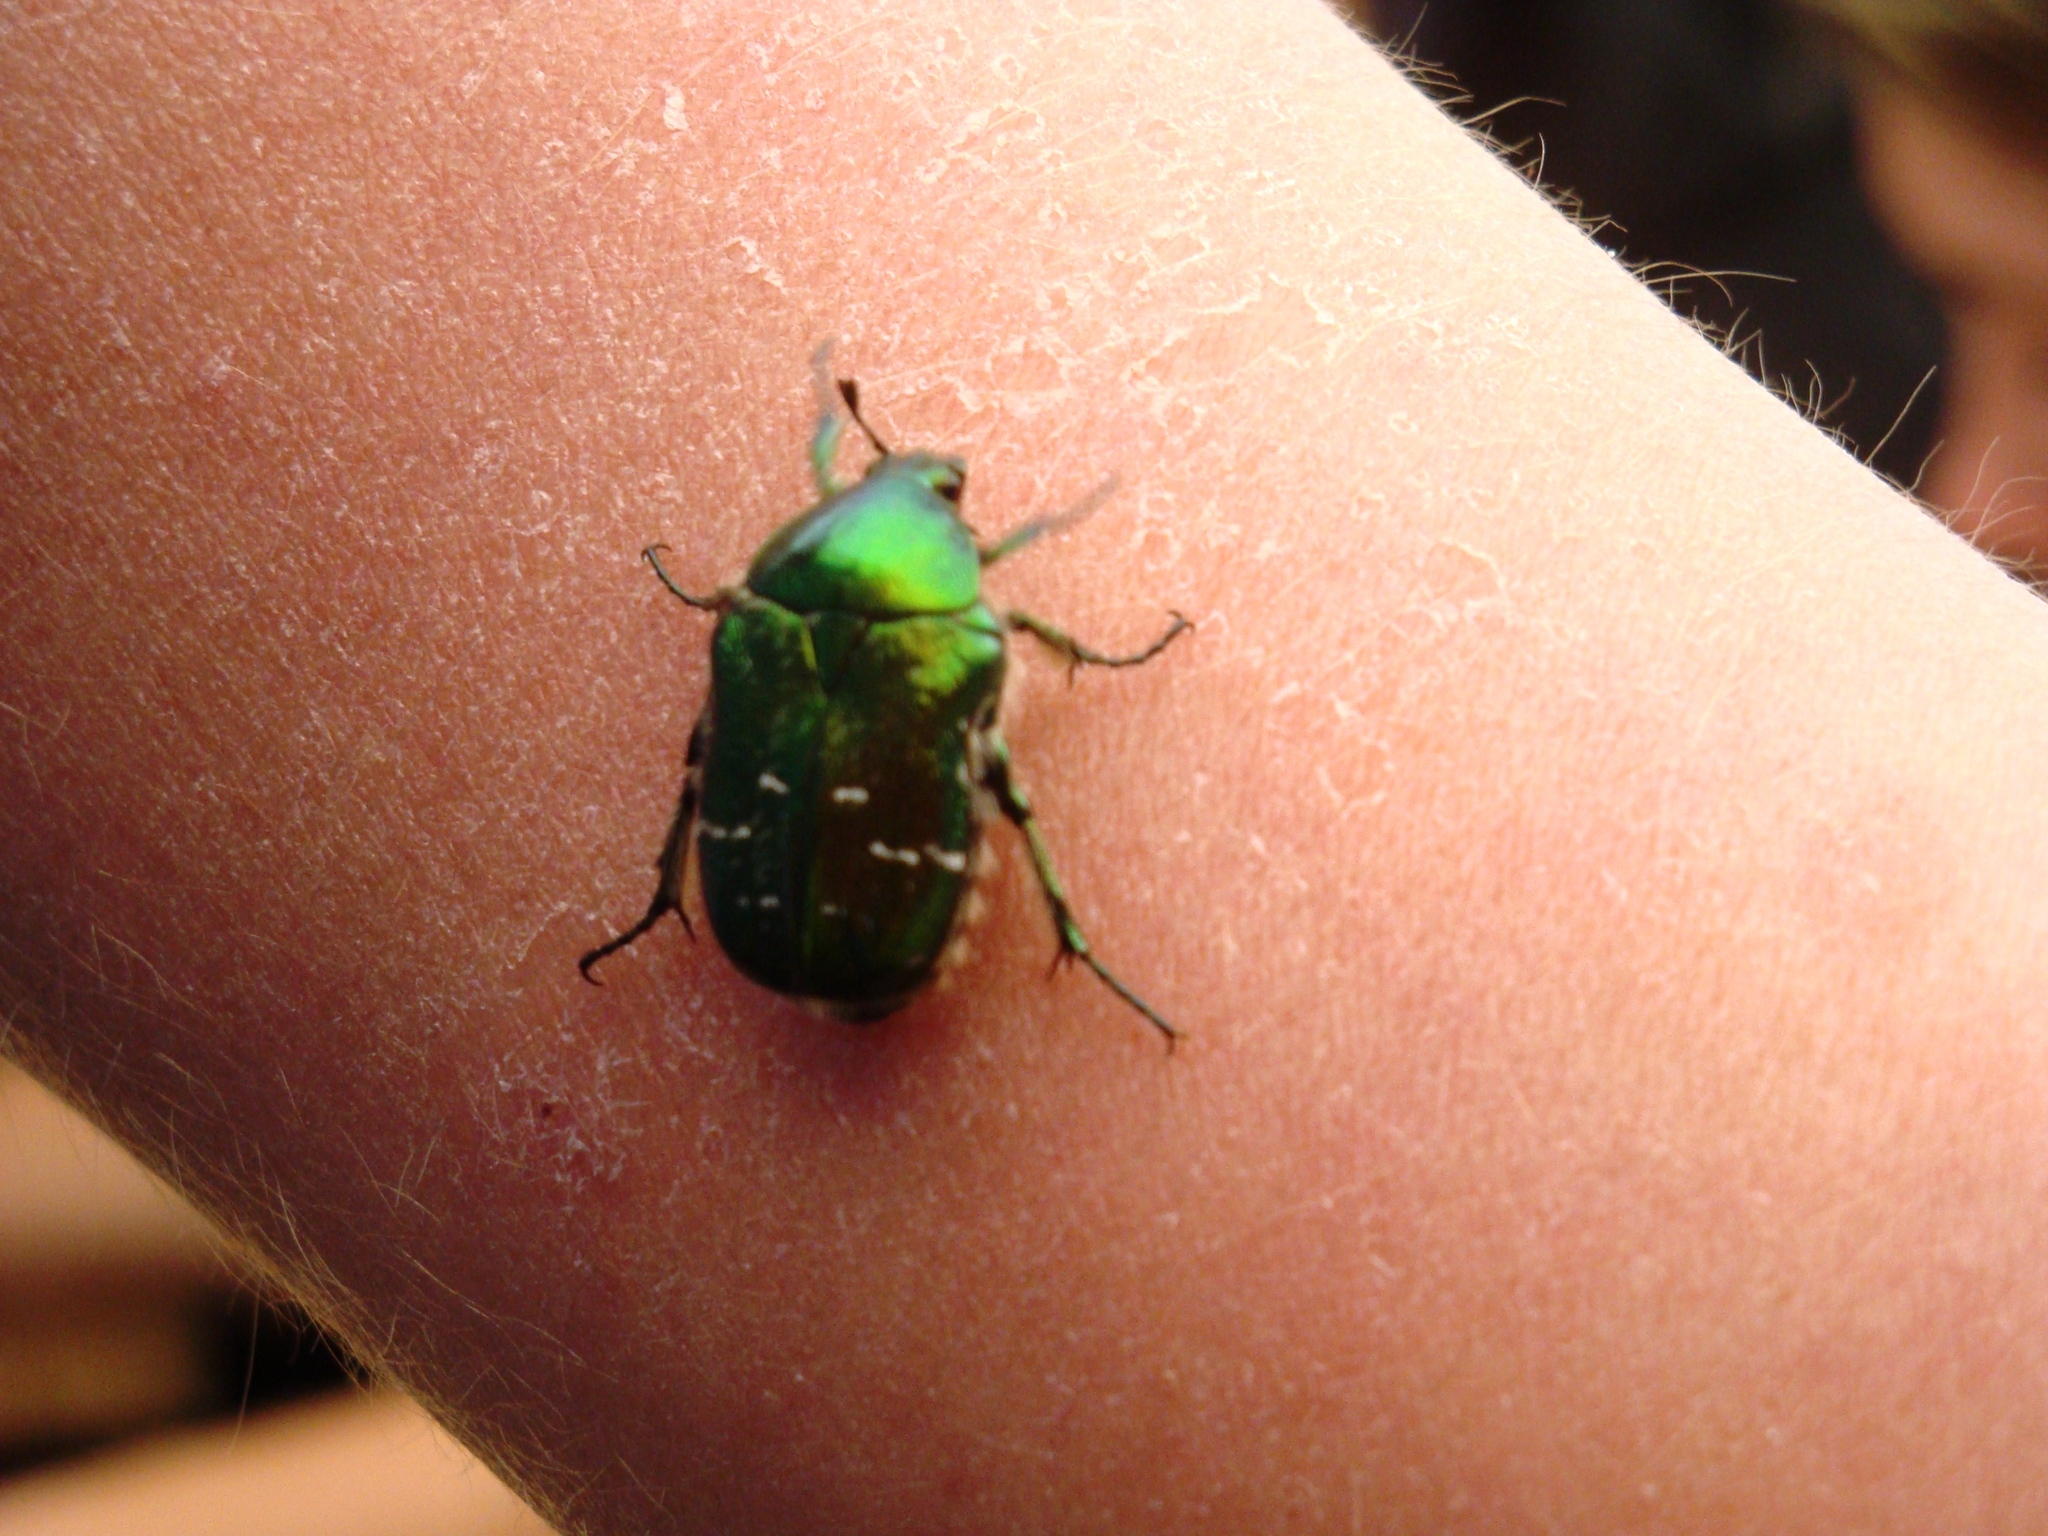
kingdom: Animalia
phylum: Arthropoda
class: Insecta
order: Coleoptera
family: Scarabaeidae
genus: Cetonia
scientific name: Cetonia aurata
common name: Rose chafer
